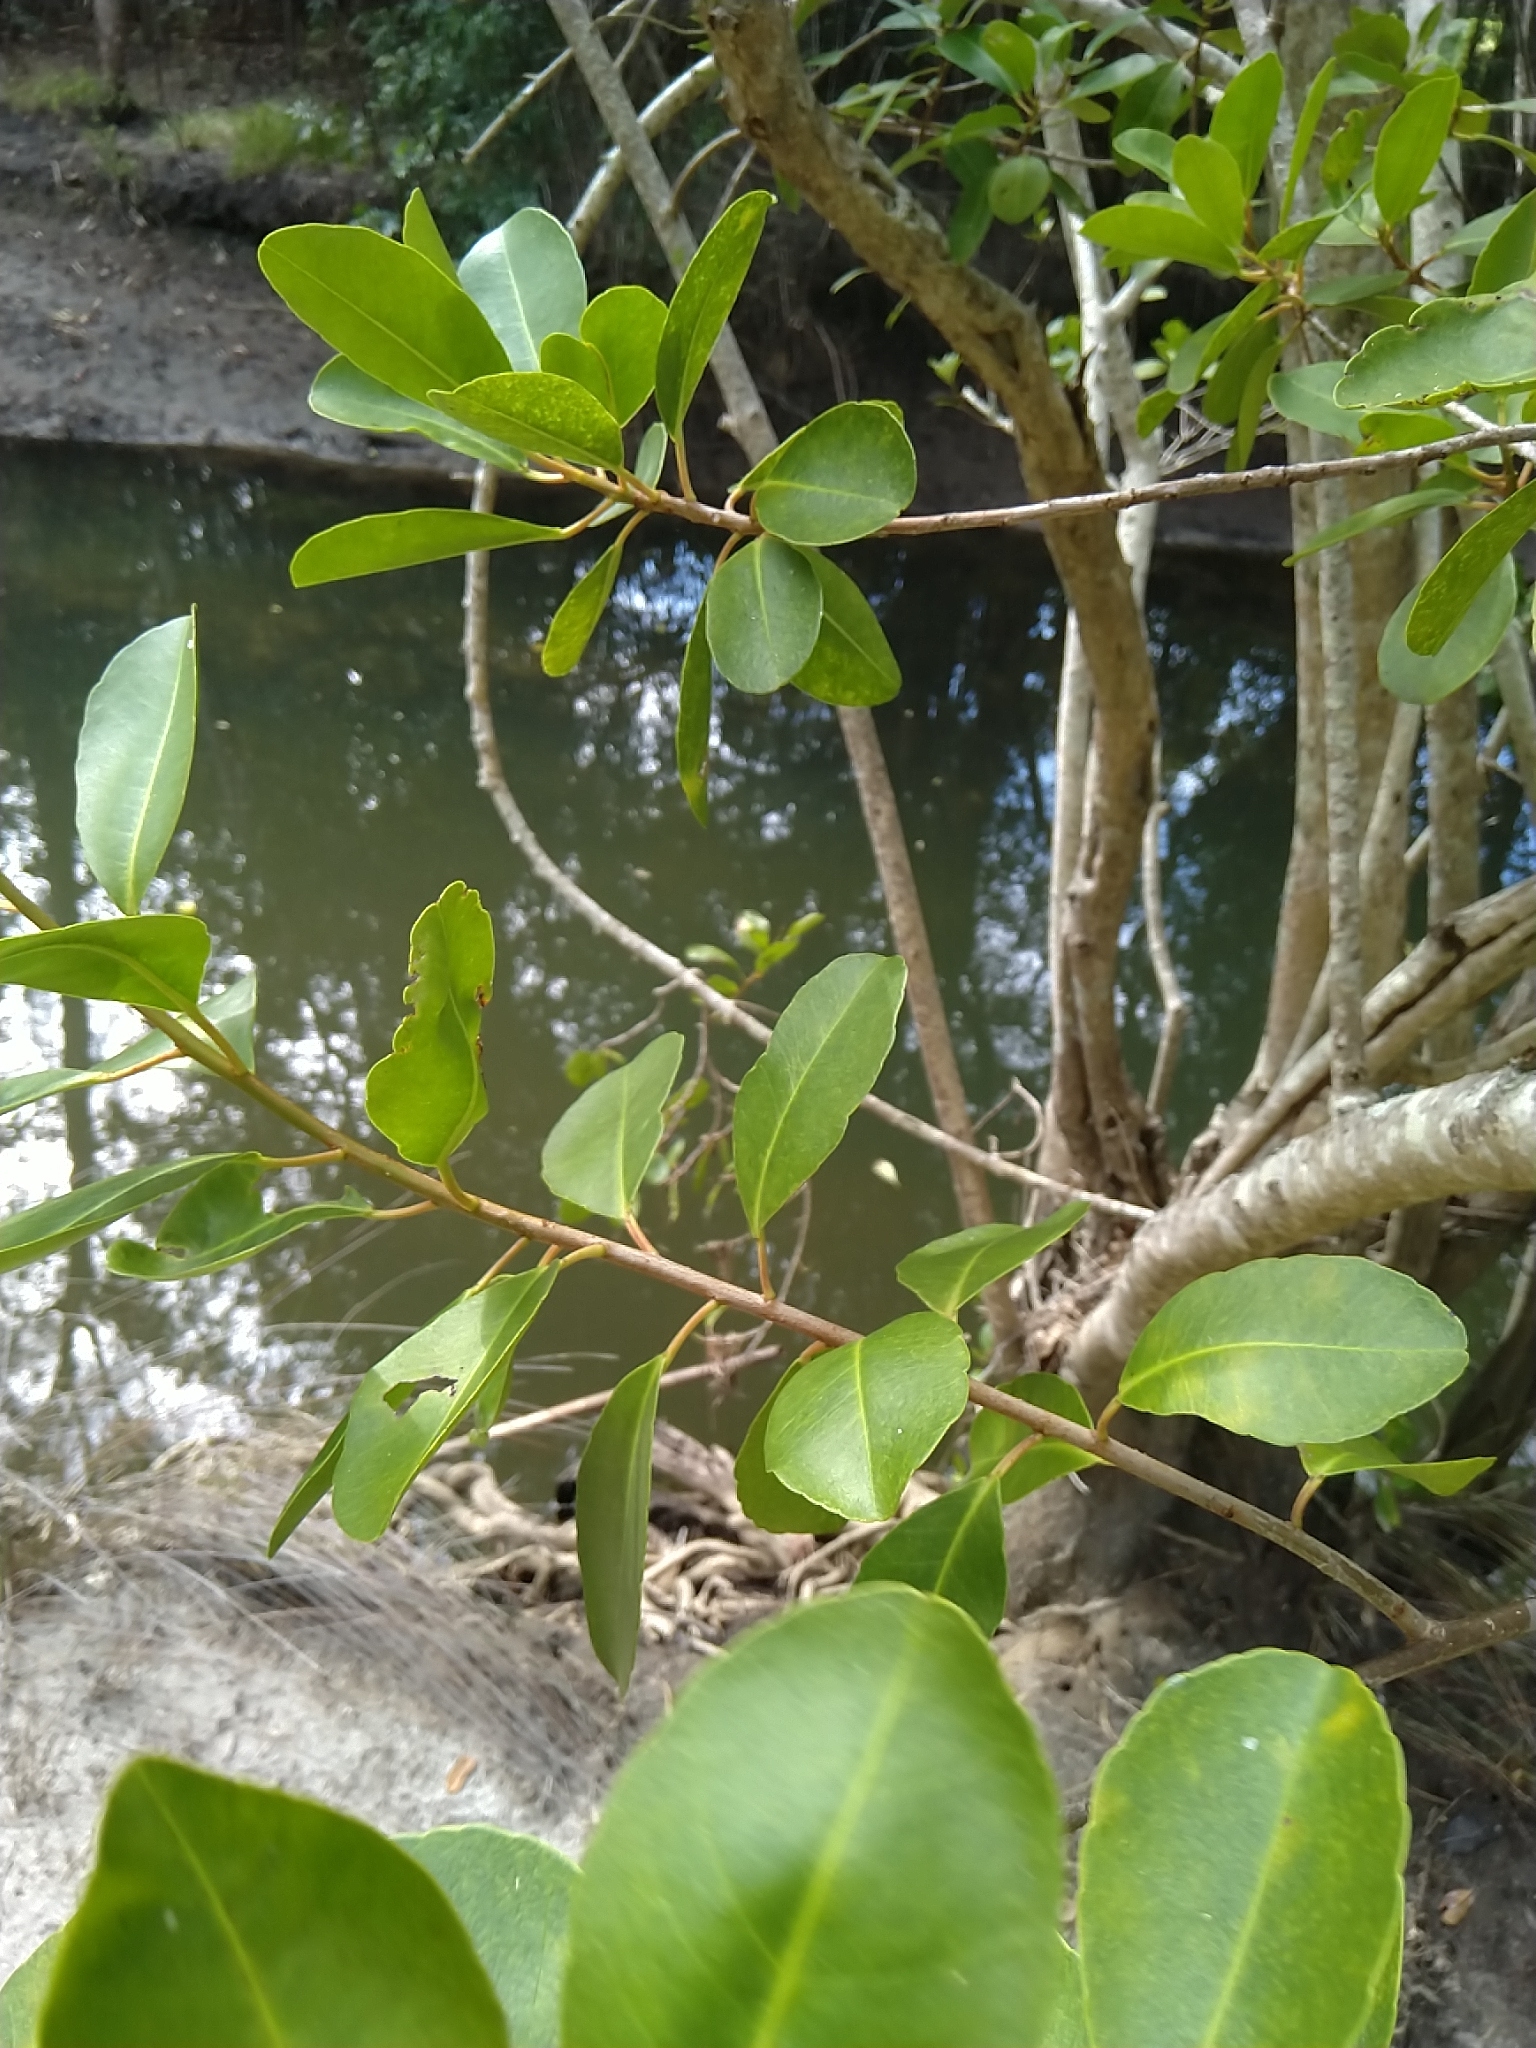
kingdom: Plantae
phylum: Tracheophyta
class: Magnoliopsida
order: Malpighiales
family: Euphorbiaceae
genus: Excoecaria
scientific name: Excoecaria agallocha
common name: River poisontree
